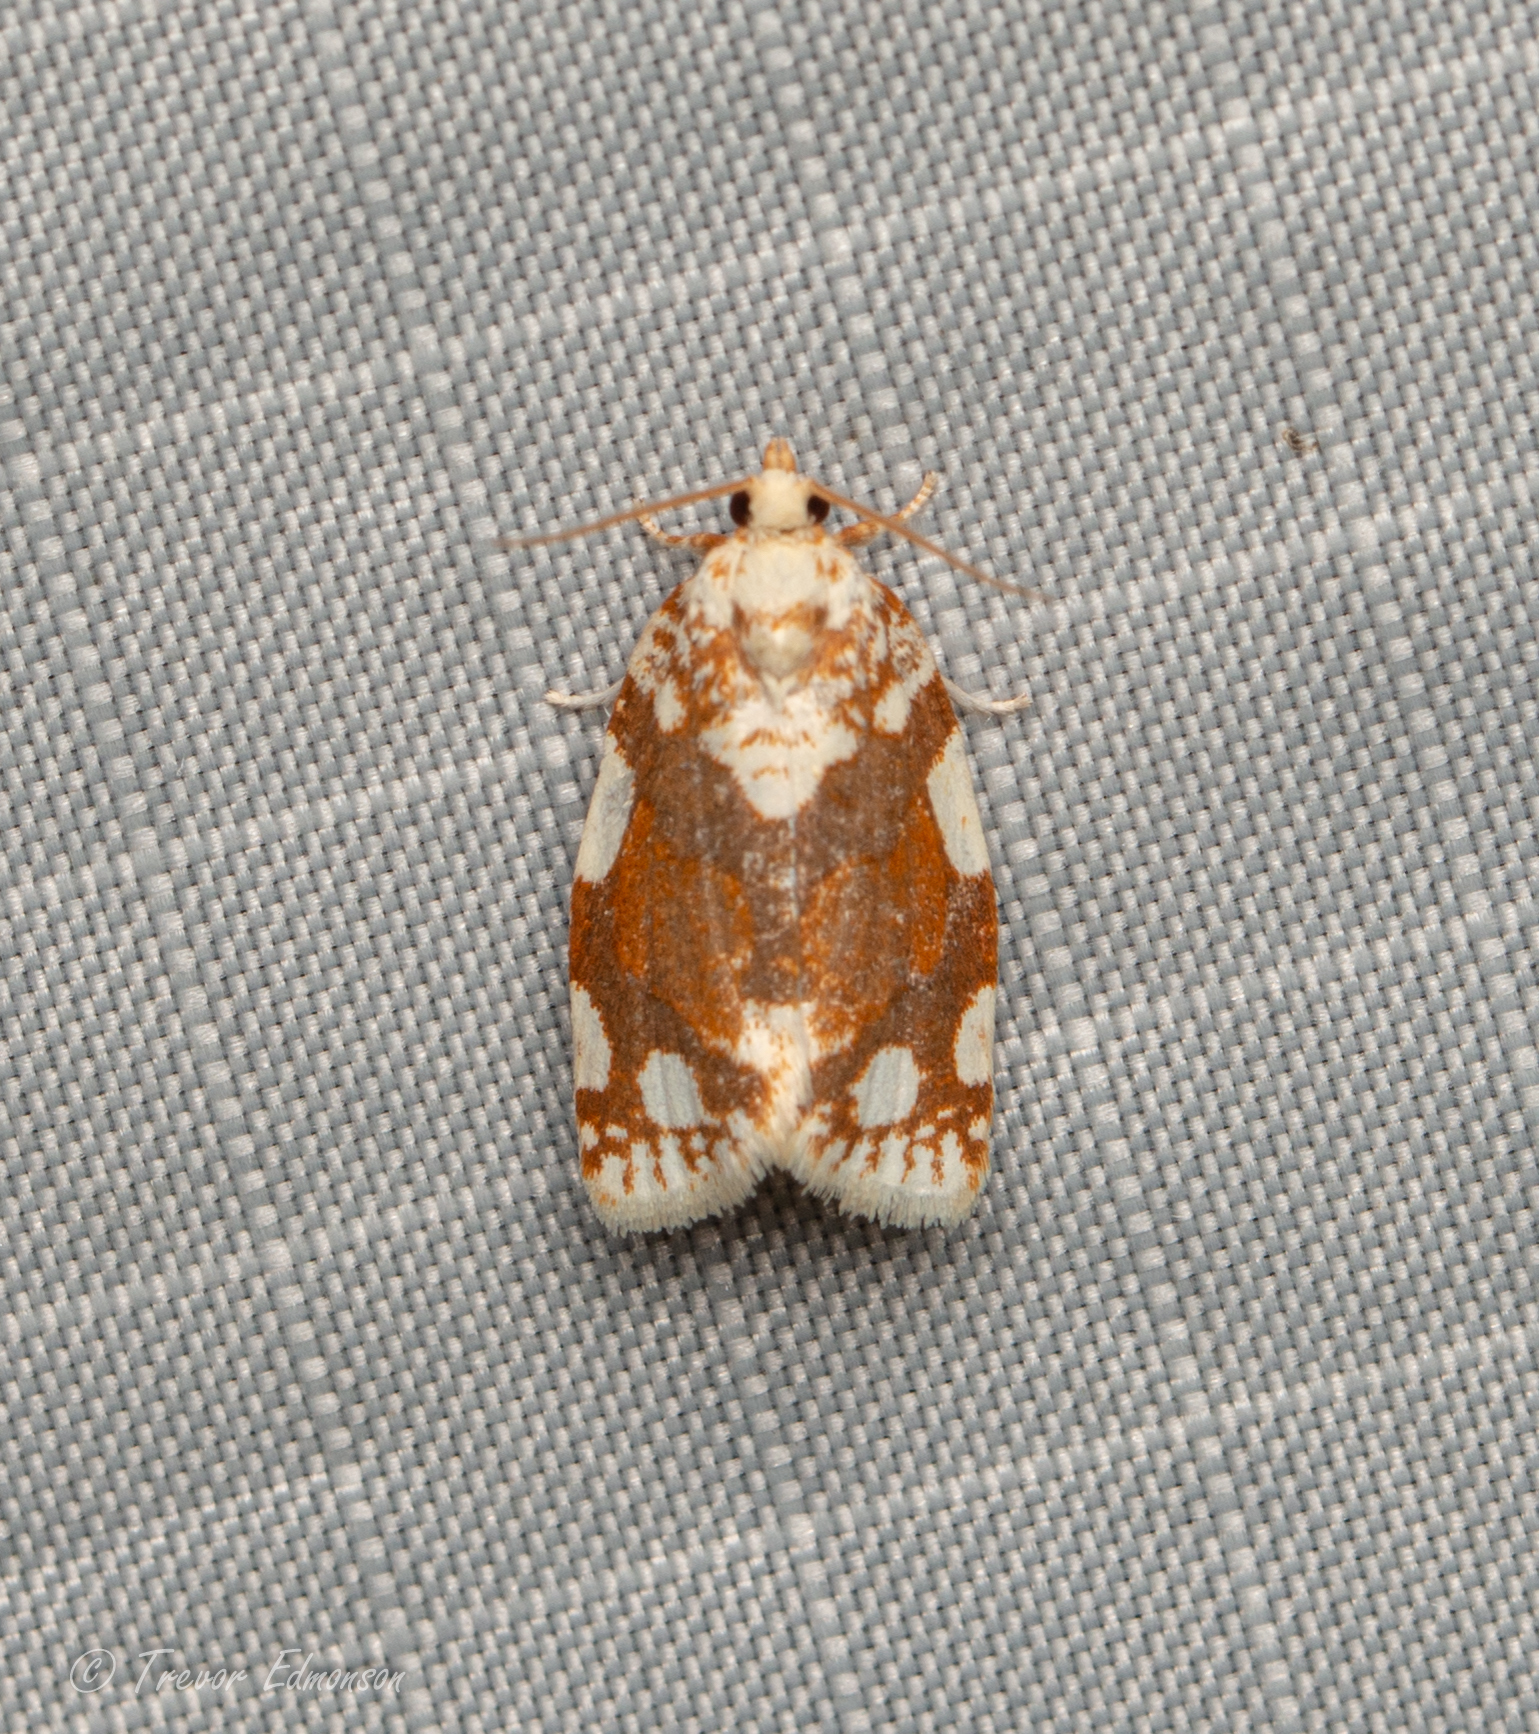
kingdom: Animalia
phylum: Arthropoda
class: Insecta
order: Lepidoptera
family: Tortricidae
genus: Argyrotaenia
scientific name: Argyrotaenia alisellana
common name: White-spotted leafroller moth
